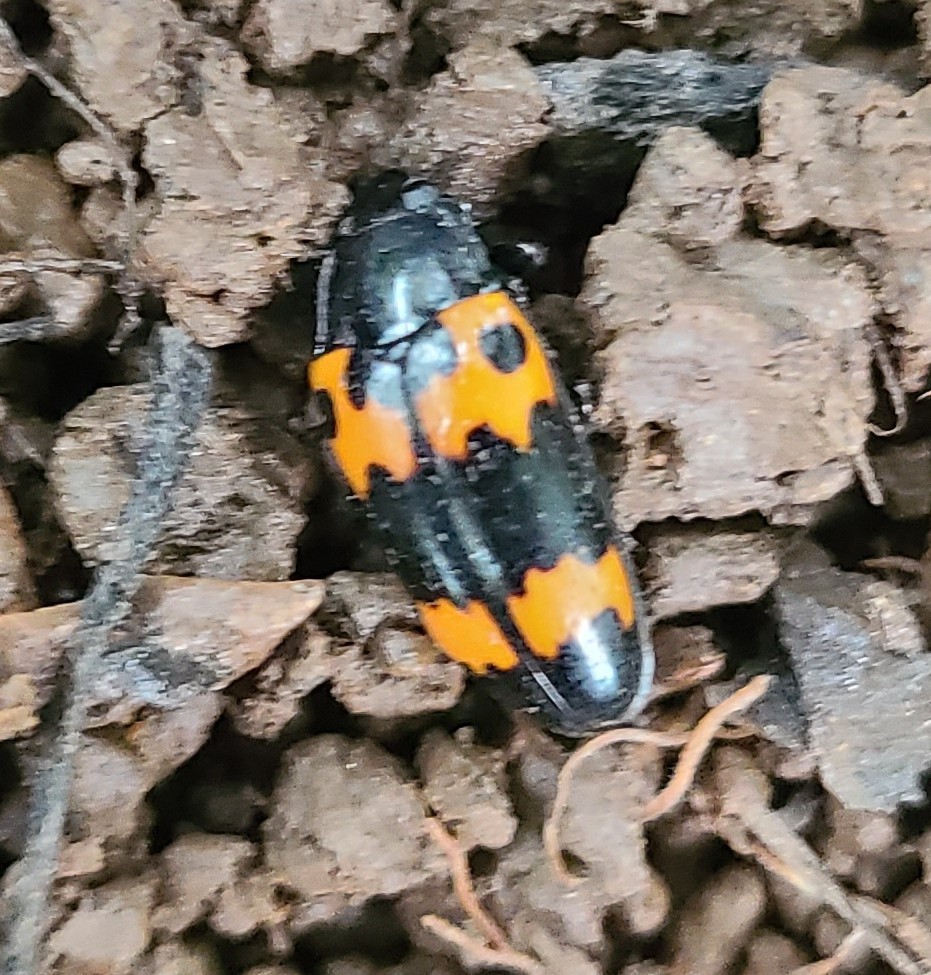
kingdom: Animalia
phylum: Arthropoda
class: Insecta
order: Coleoptera
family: Erotylidae
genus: Megalodacne
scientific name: Megalodacne fasciata
